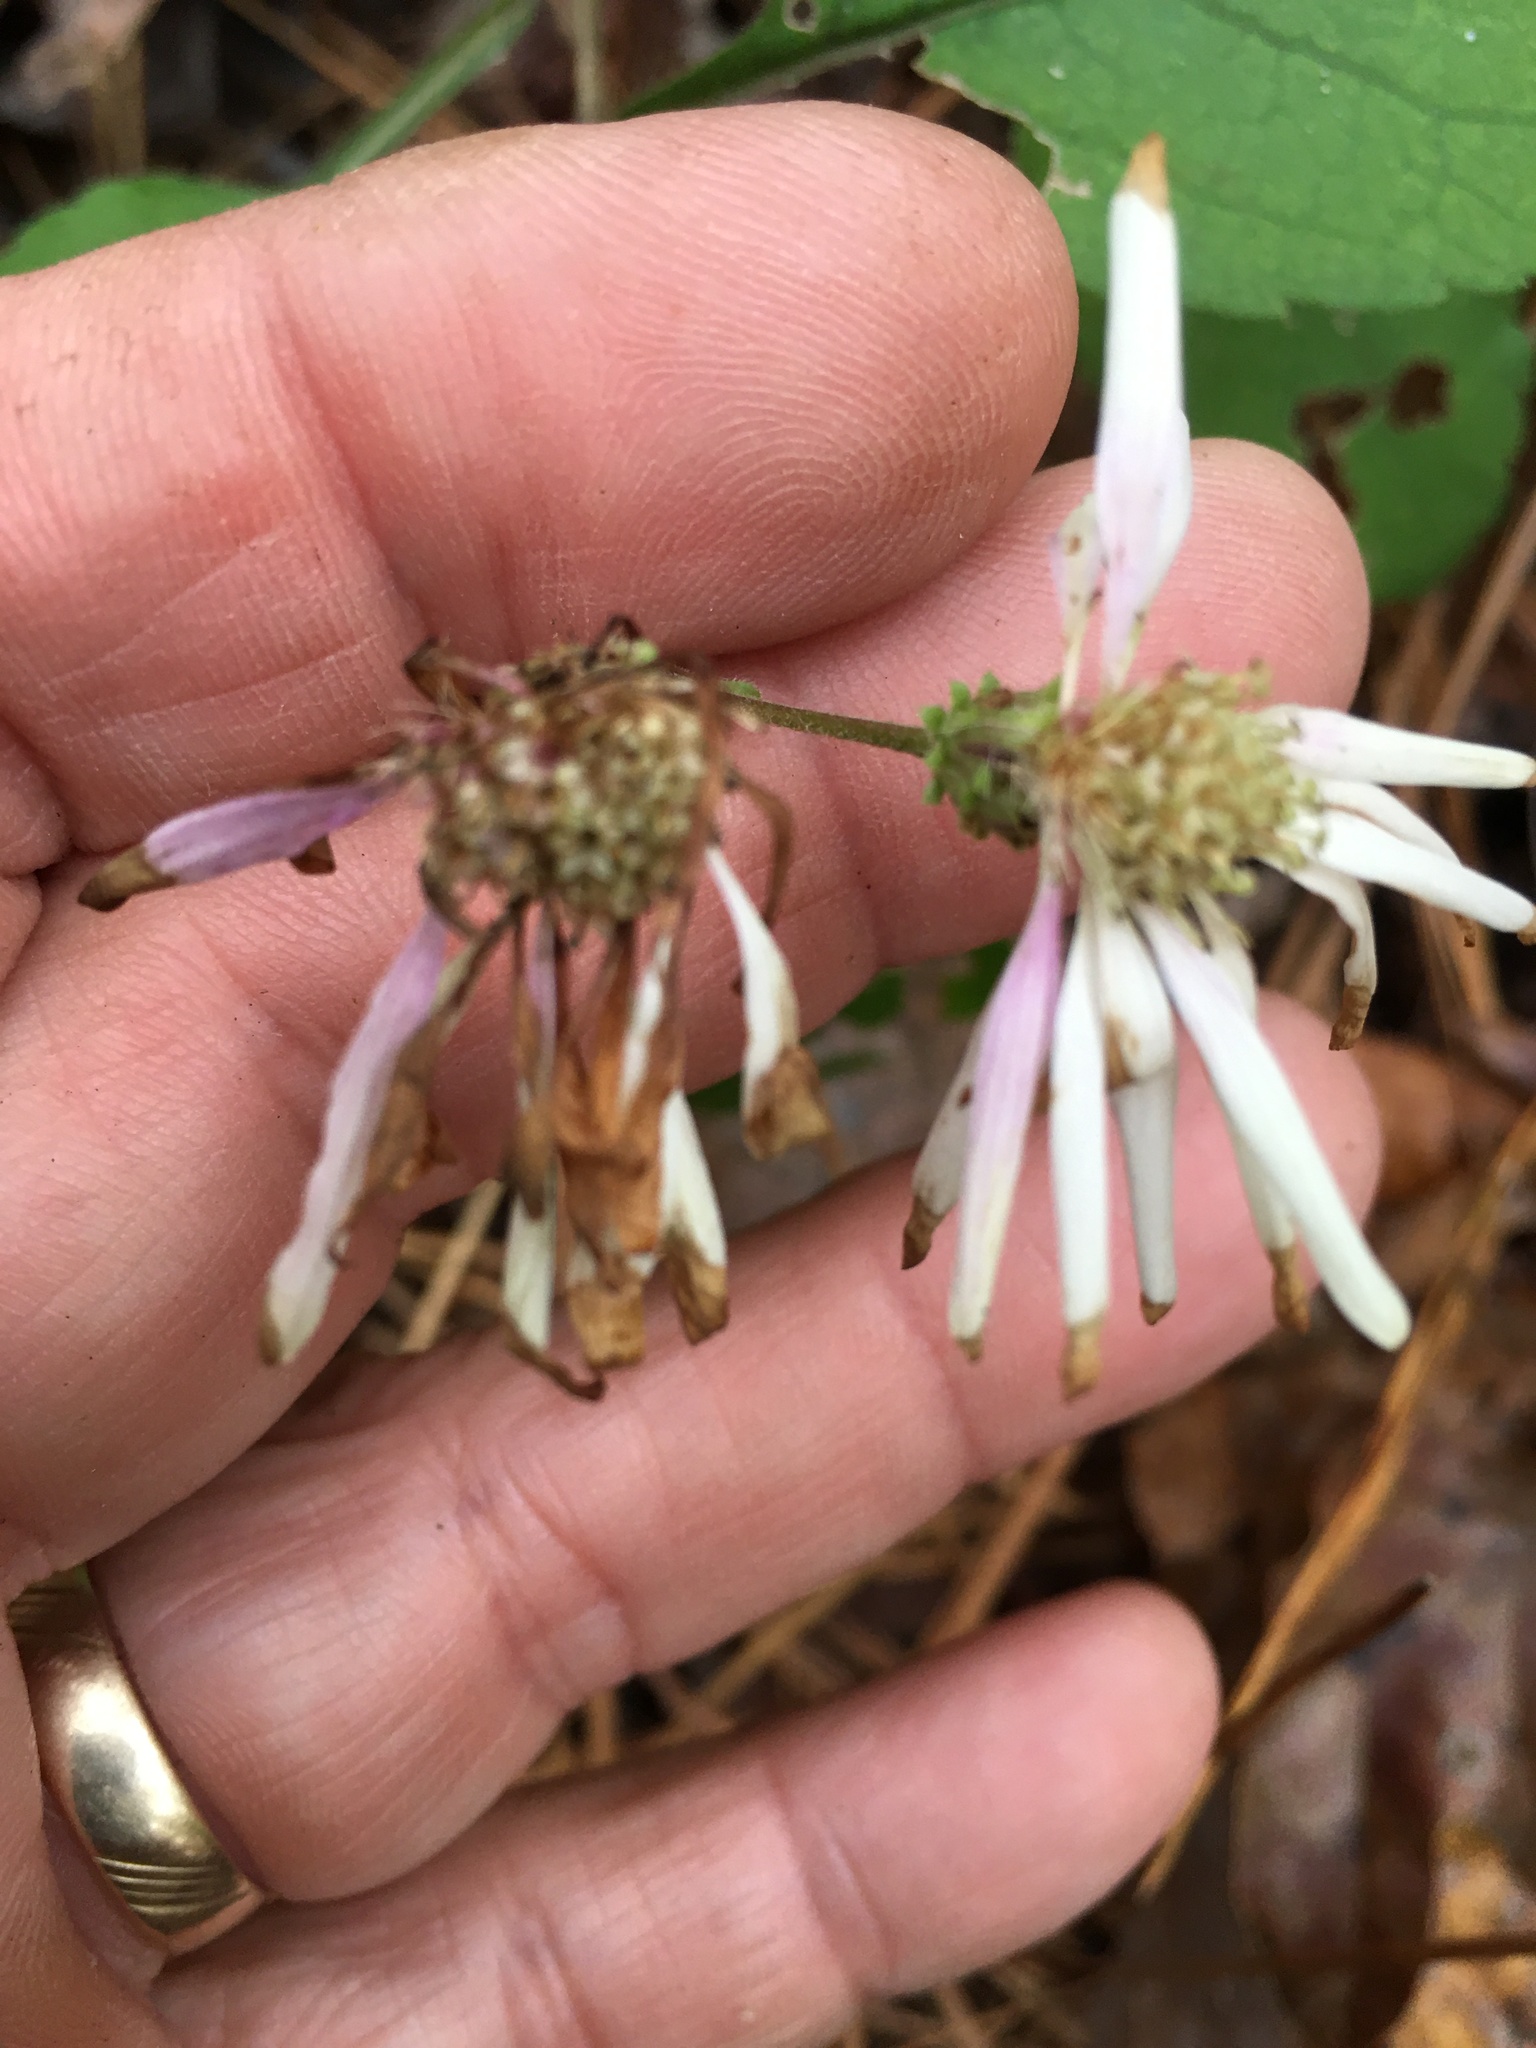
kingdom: Plantae
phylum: Tracheophyta
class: Magnoliopsida
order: Asterales
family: Asteraceae
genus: Eurybia
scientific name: Eurybia mirabilis
